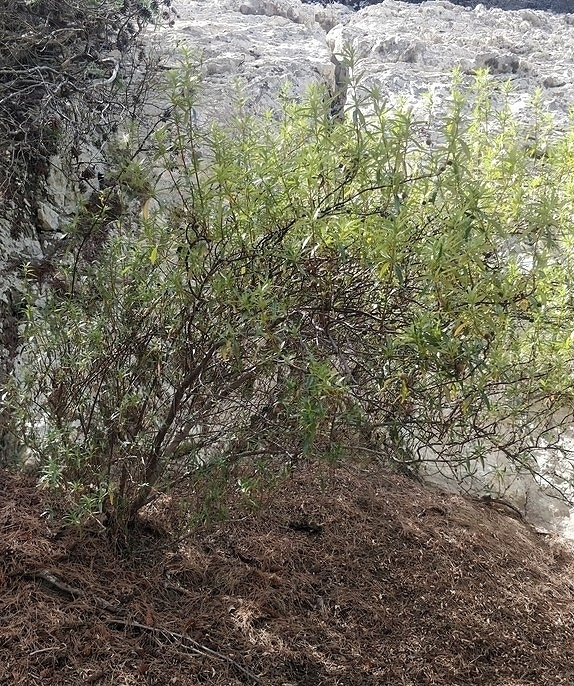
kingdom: Plantae
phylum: Tracheophyta
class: Magnoliopsida
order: Malvales
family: Cistaceae
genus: Cistus
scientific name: Cistus ladanifer
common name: Common gum cistus
